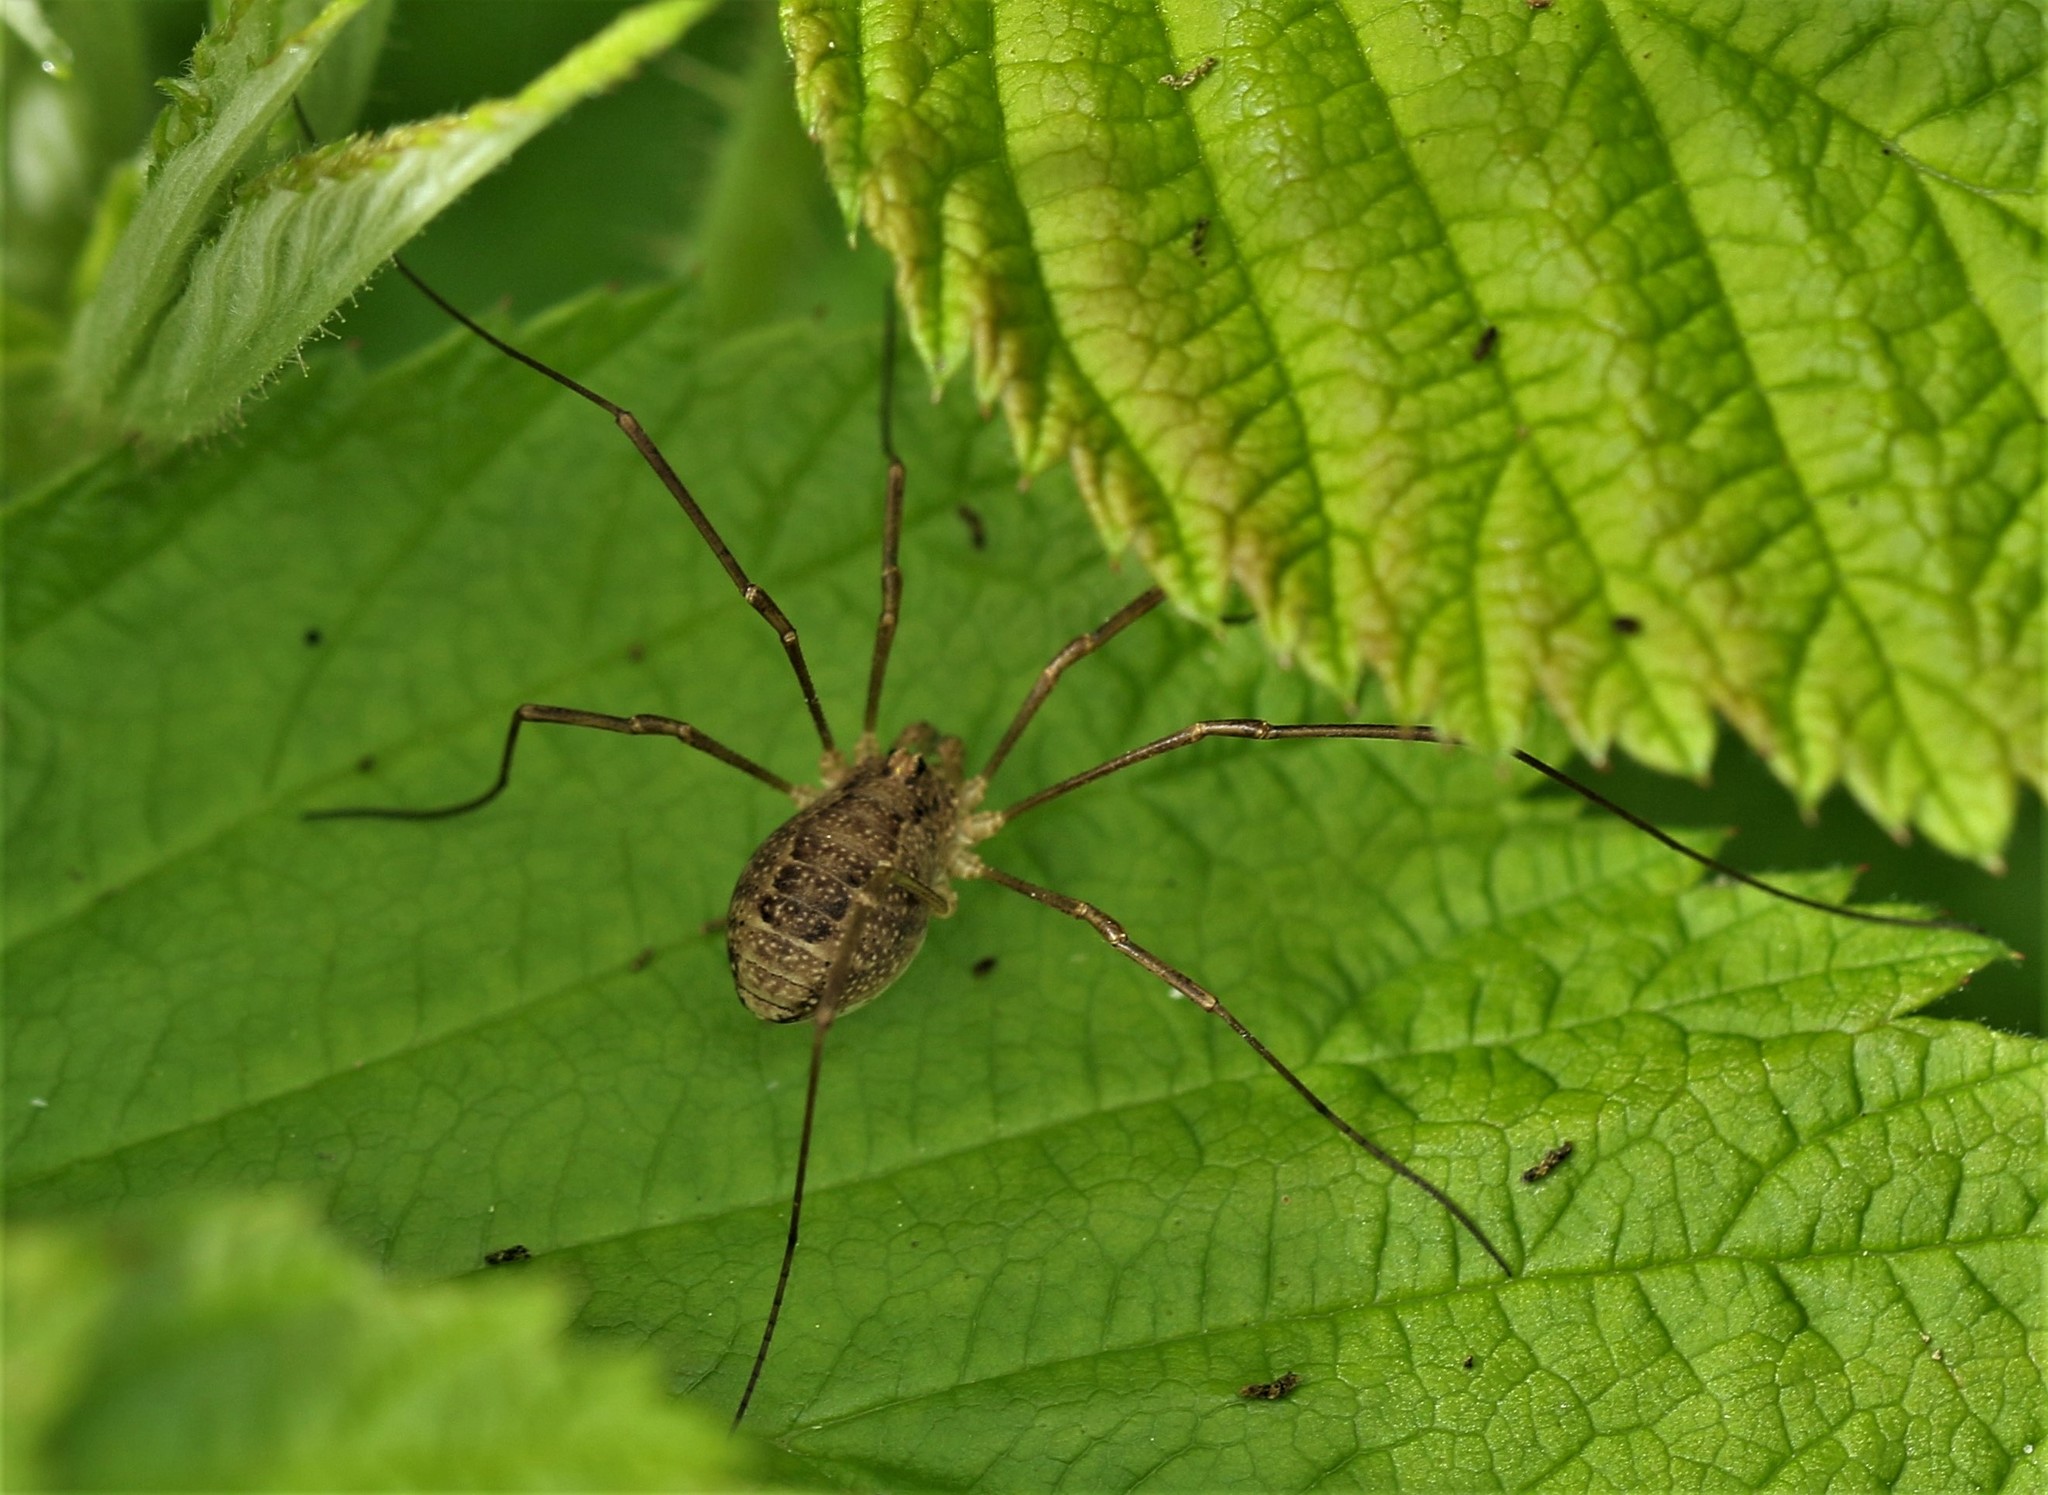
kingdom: Animalia
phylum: Arthropoda
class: Arachnida
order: Opiliones
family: Phalangiidae
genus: Rilaena
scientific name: Rilaena triangularis
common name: Spring harvestman
